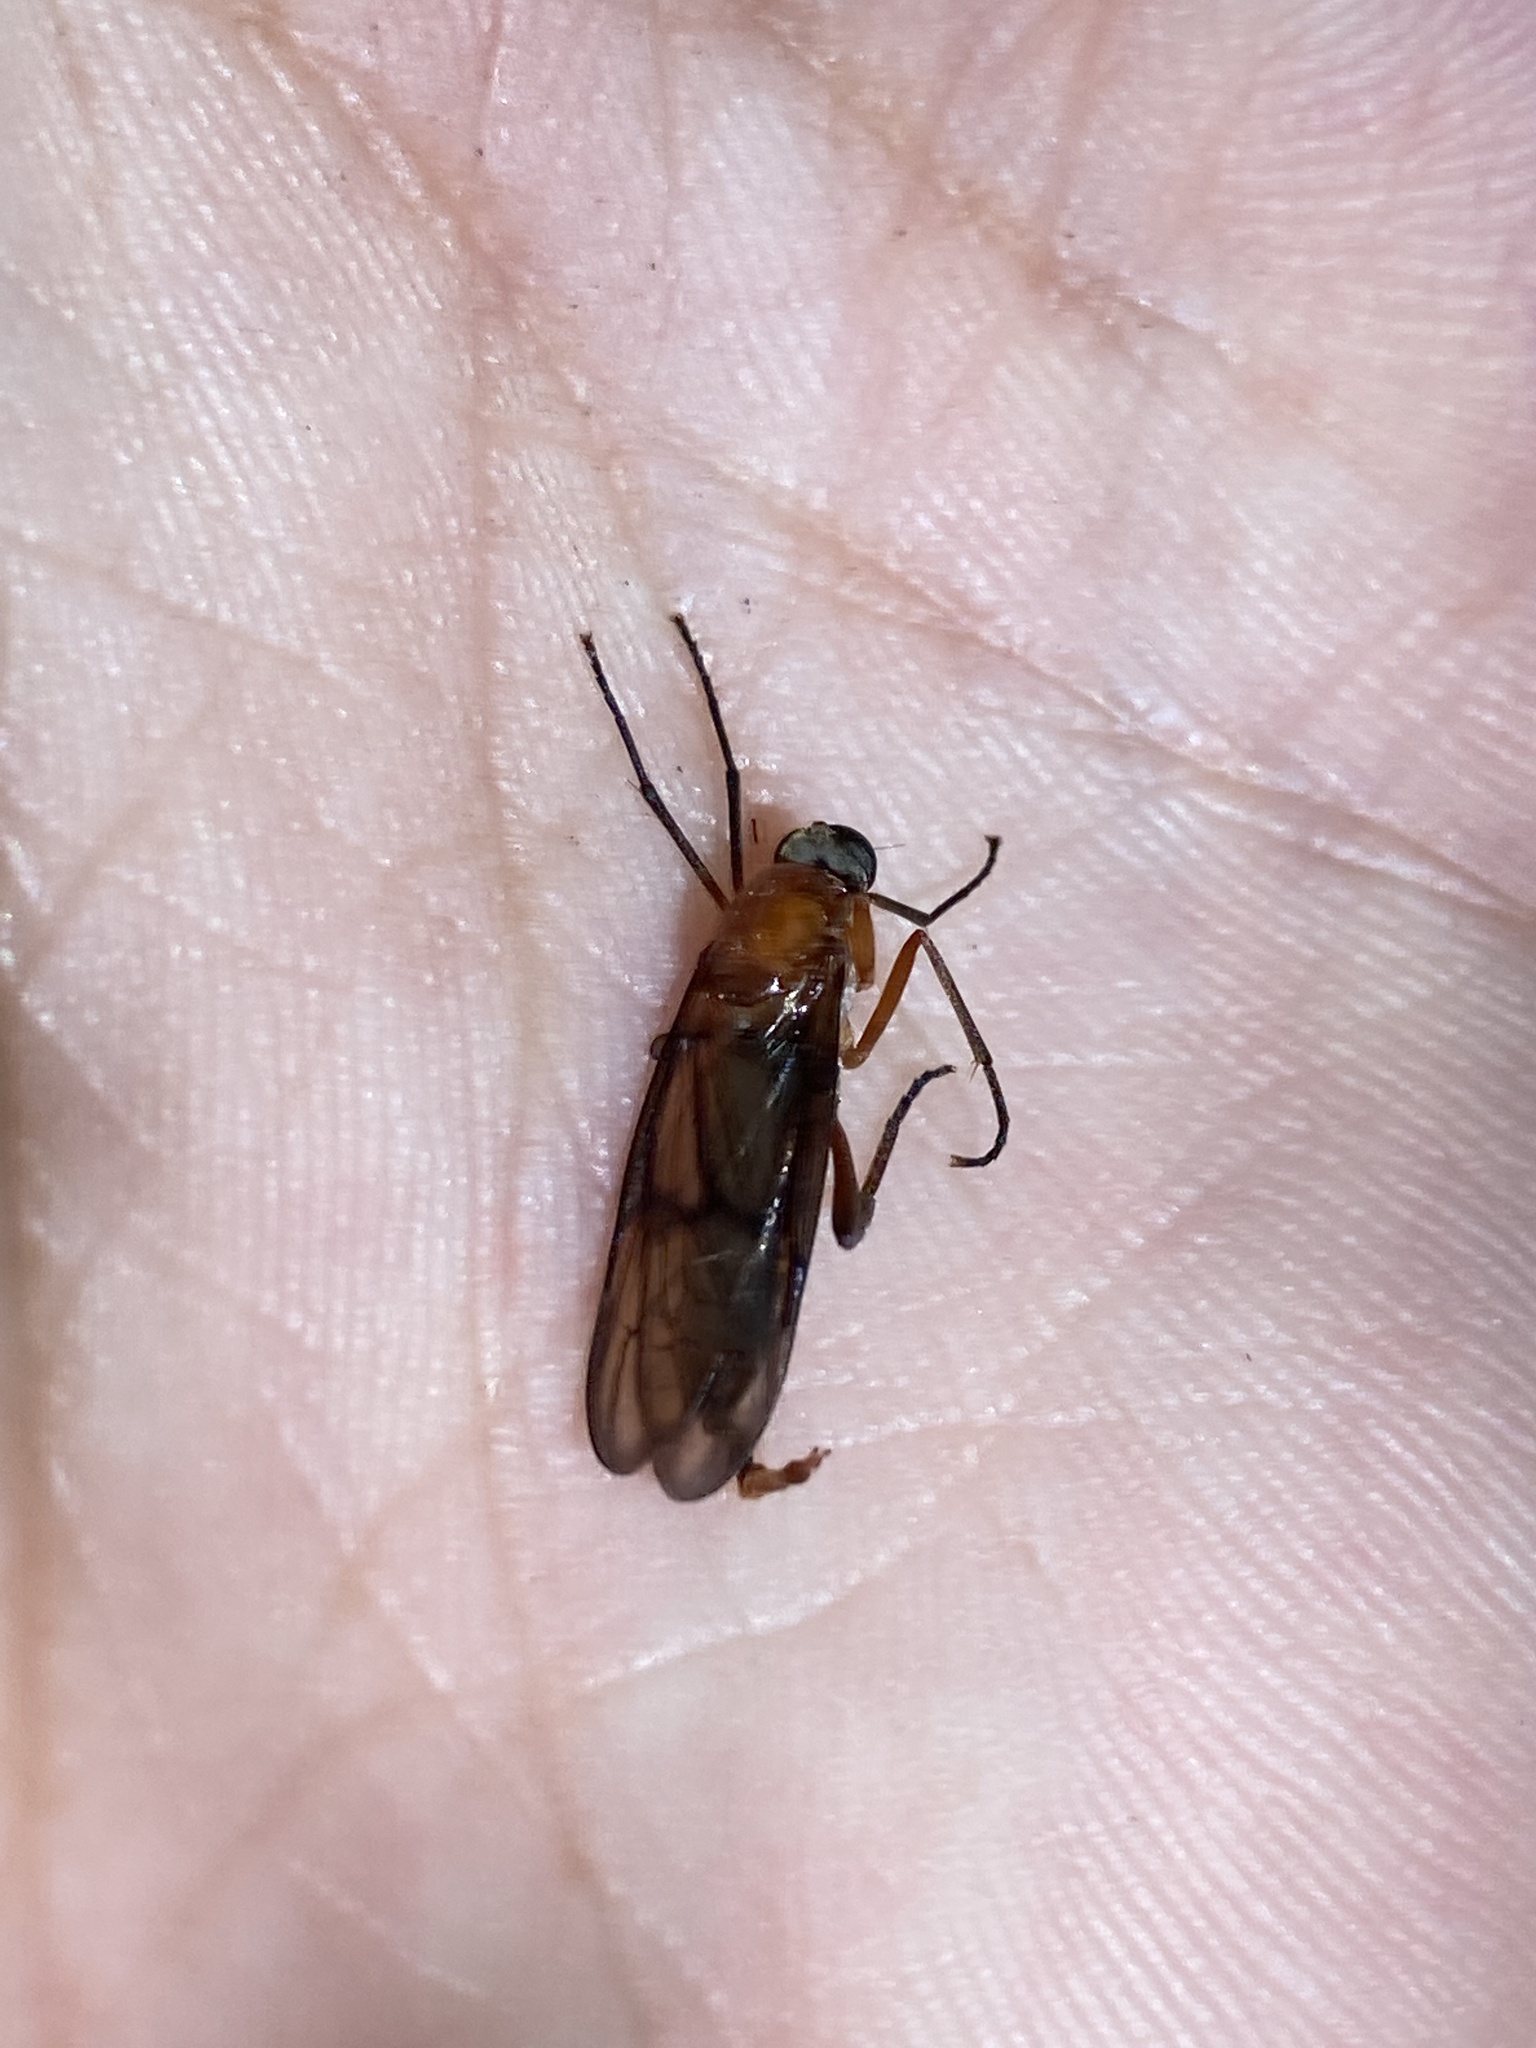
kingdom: Animalia
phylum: Arthropoda
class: Insecta
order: Diptera
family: Xylophagidae
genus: Dialysis
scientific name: Dialysis rufithorax
